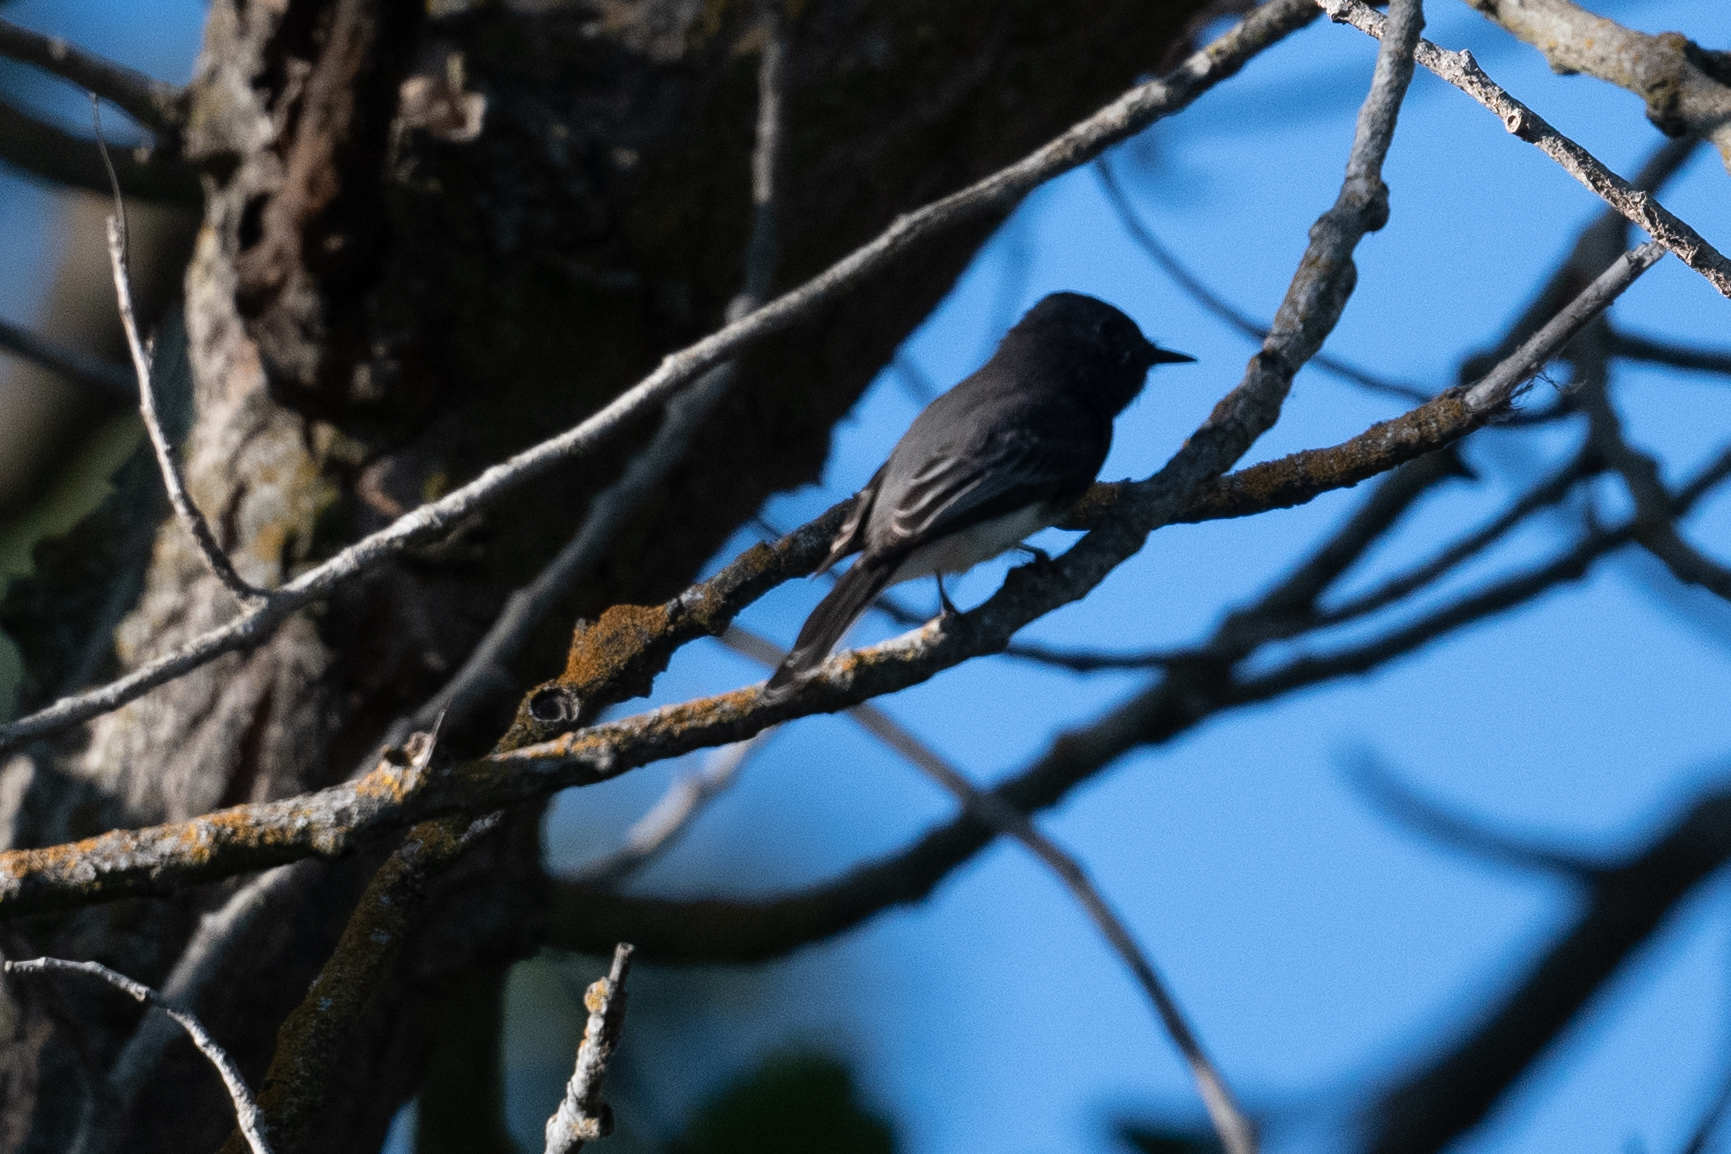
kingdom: Animalia
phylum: Chordata
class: Aves
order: Passeriformes
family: Tyrannidae
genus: Sayornis
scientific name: Sayornis nigricans
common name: Black phoebe
